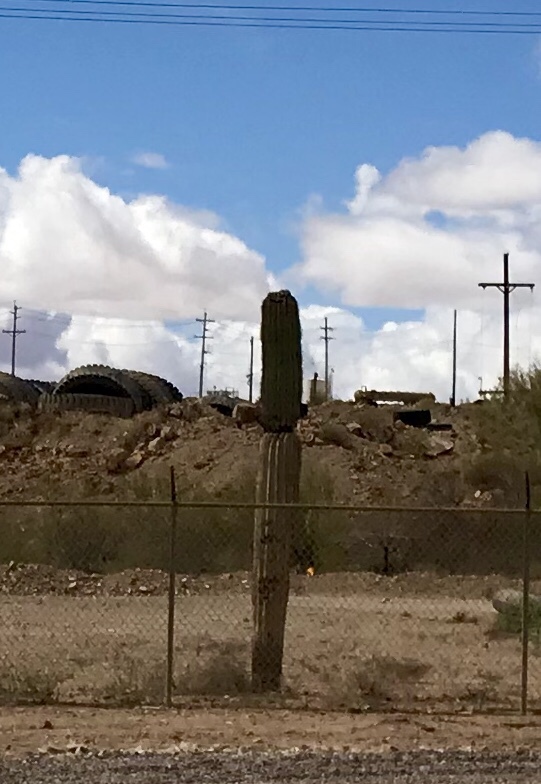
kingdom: Plantae
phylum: Tracheophyta
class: Magnoliopsida
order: Caryophyllales
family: Cactaceae
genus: Carnegiea
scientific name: Carnegiea gigantea
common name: Saguaro
